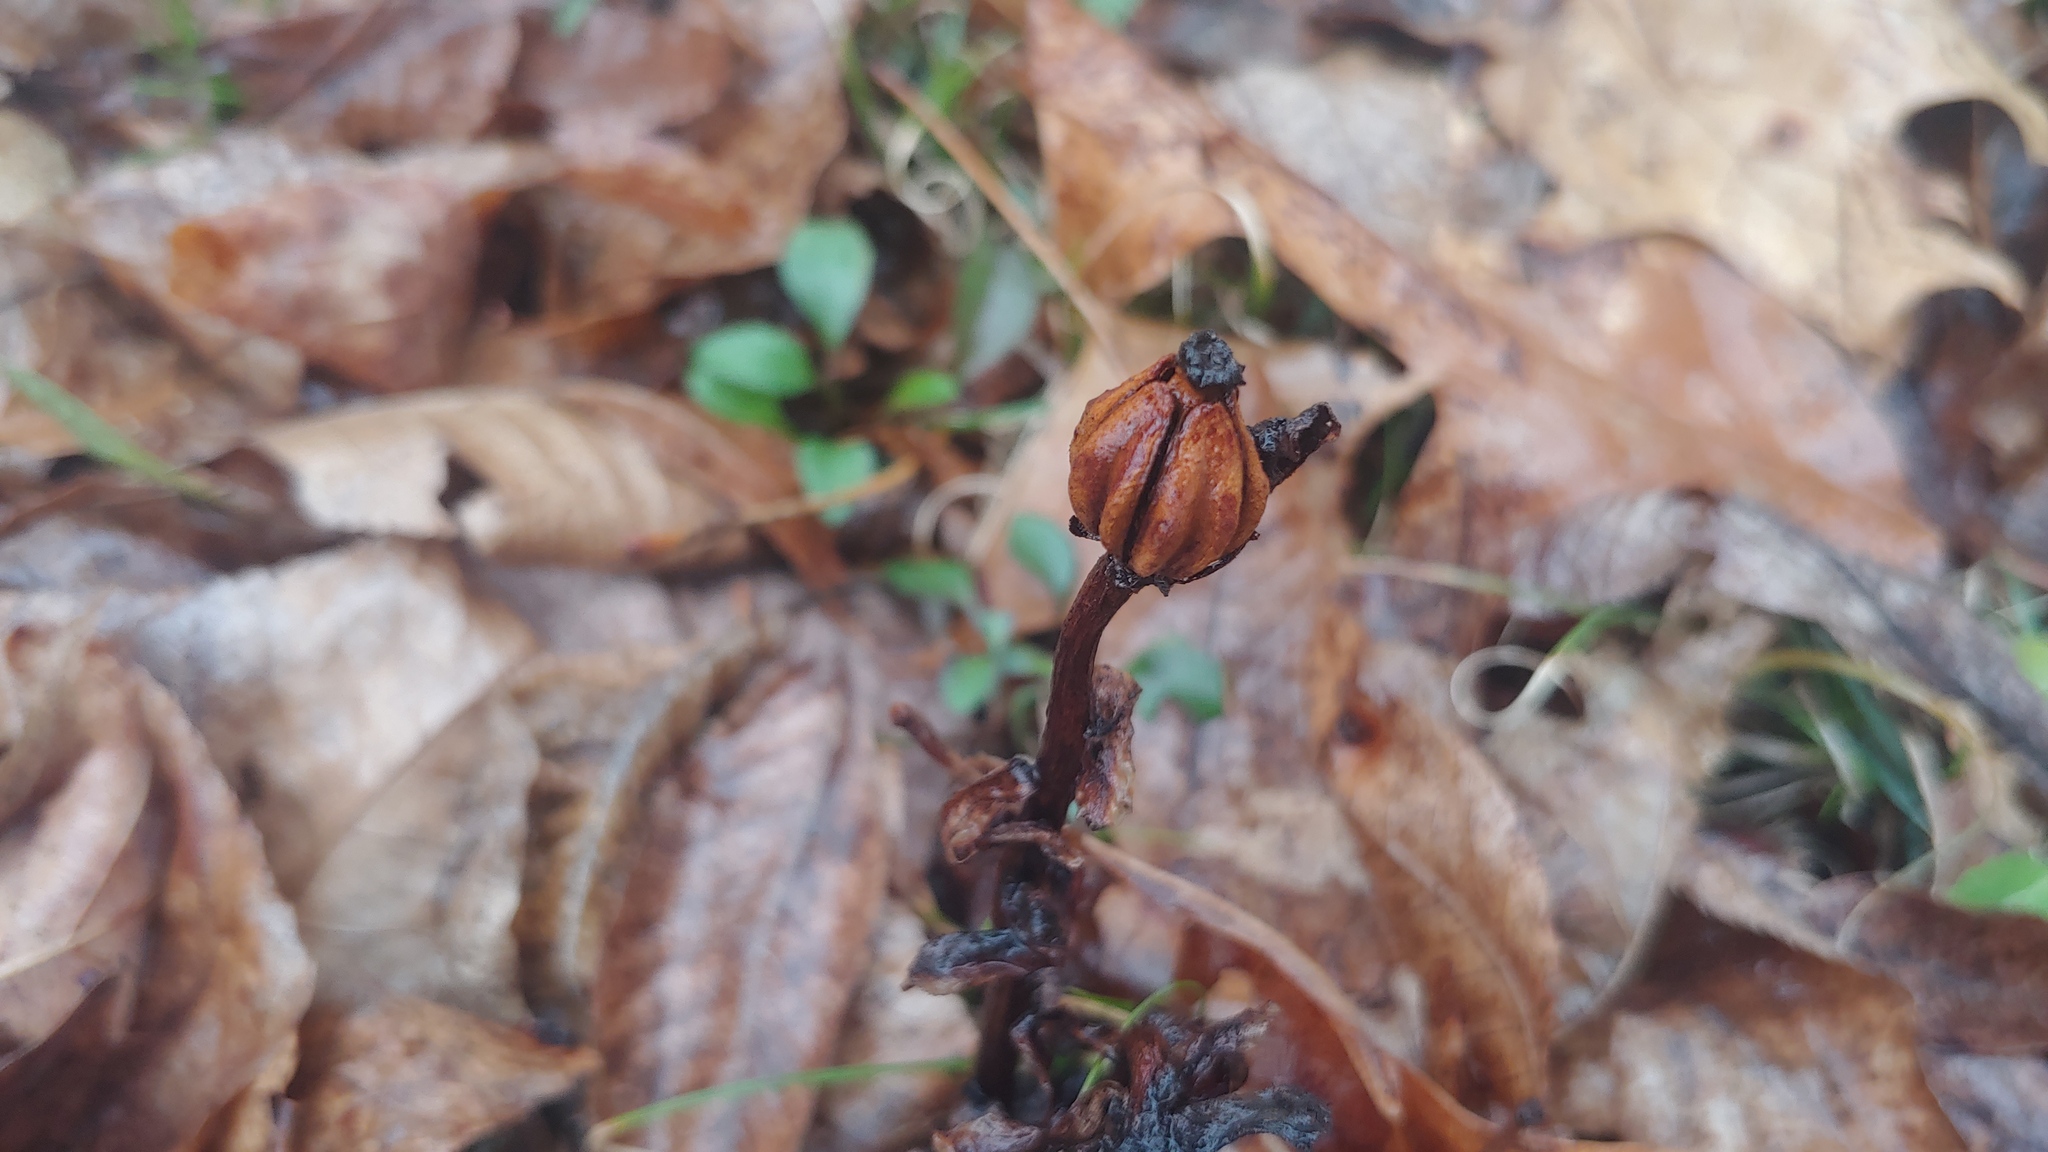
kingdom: Plantae
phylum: Tracheophyta
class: Magnoliopsida
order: Ericales
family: Ericaceae
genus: Monotropa
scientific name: Monotropa uniflora
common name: Convulsion root
